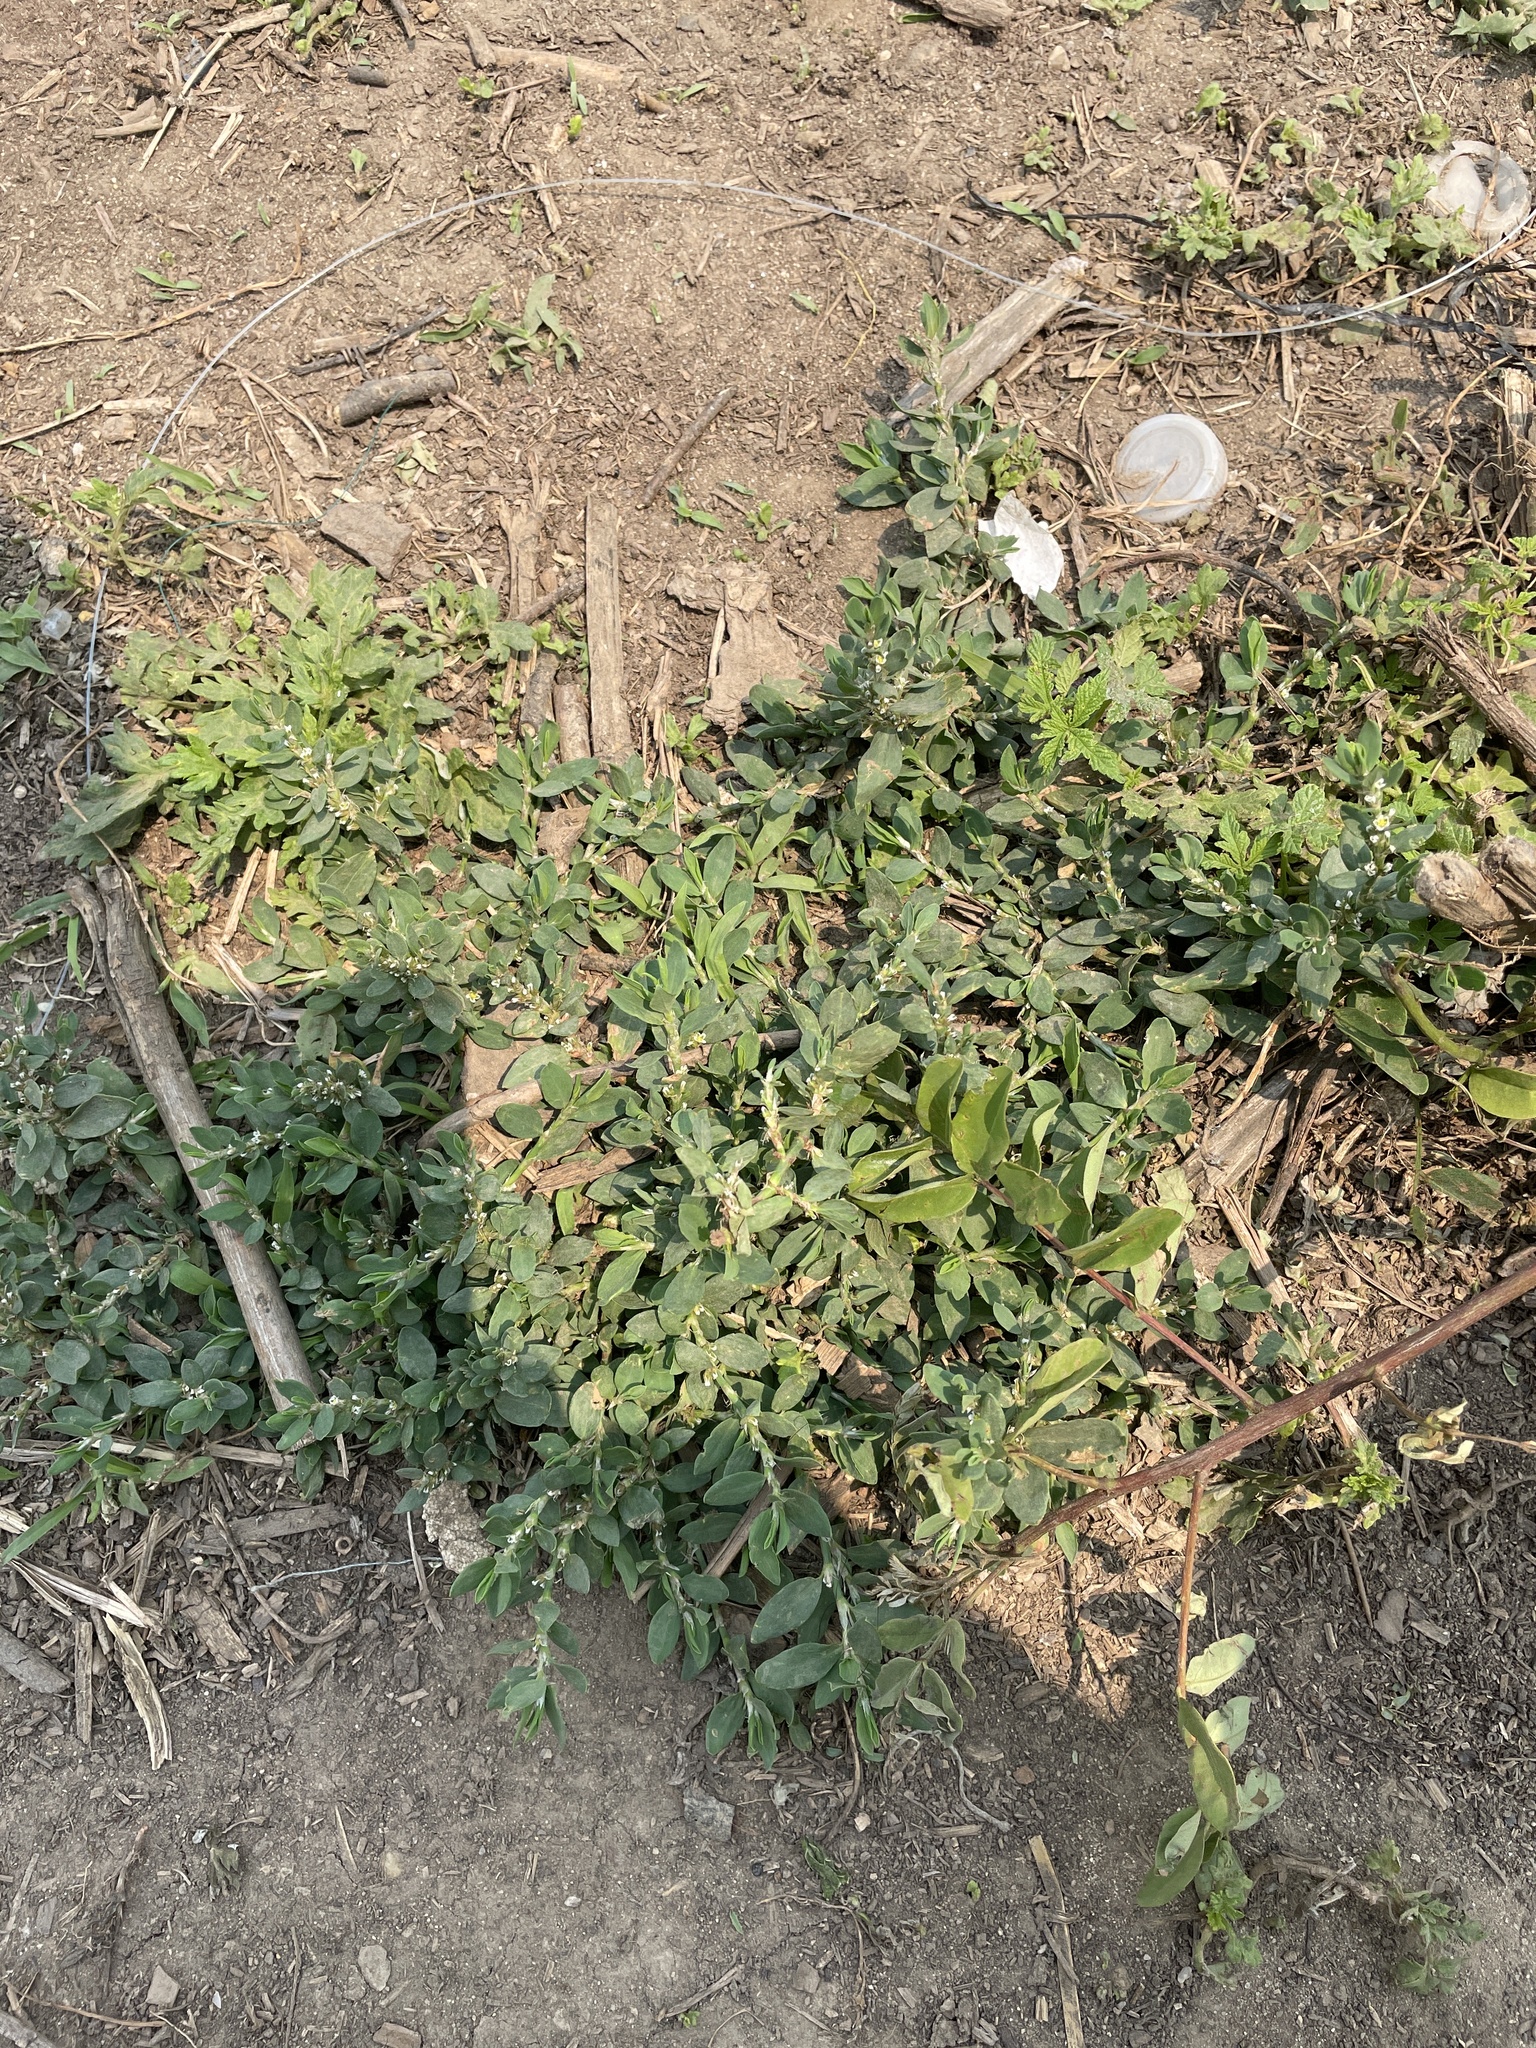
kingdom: Plantae
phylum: Tracheophyta
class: Magnoliopsida
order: Caryophyllales
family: Polygonaceae
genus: Polygonum
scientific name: Polygonum aviculare
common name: Prostrate knotweed
